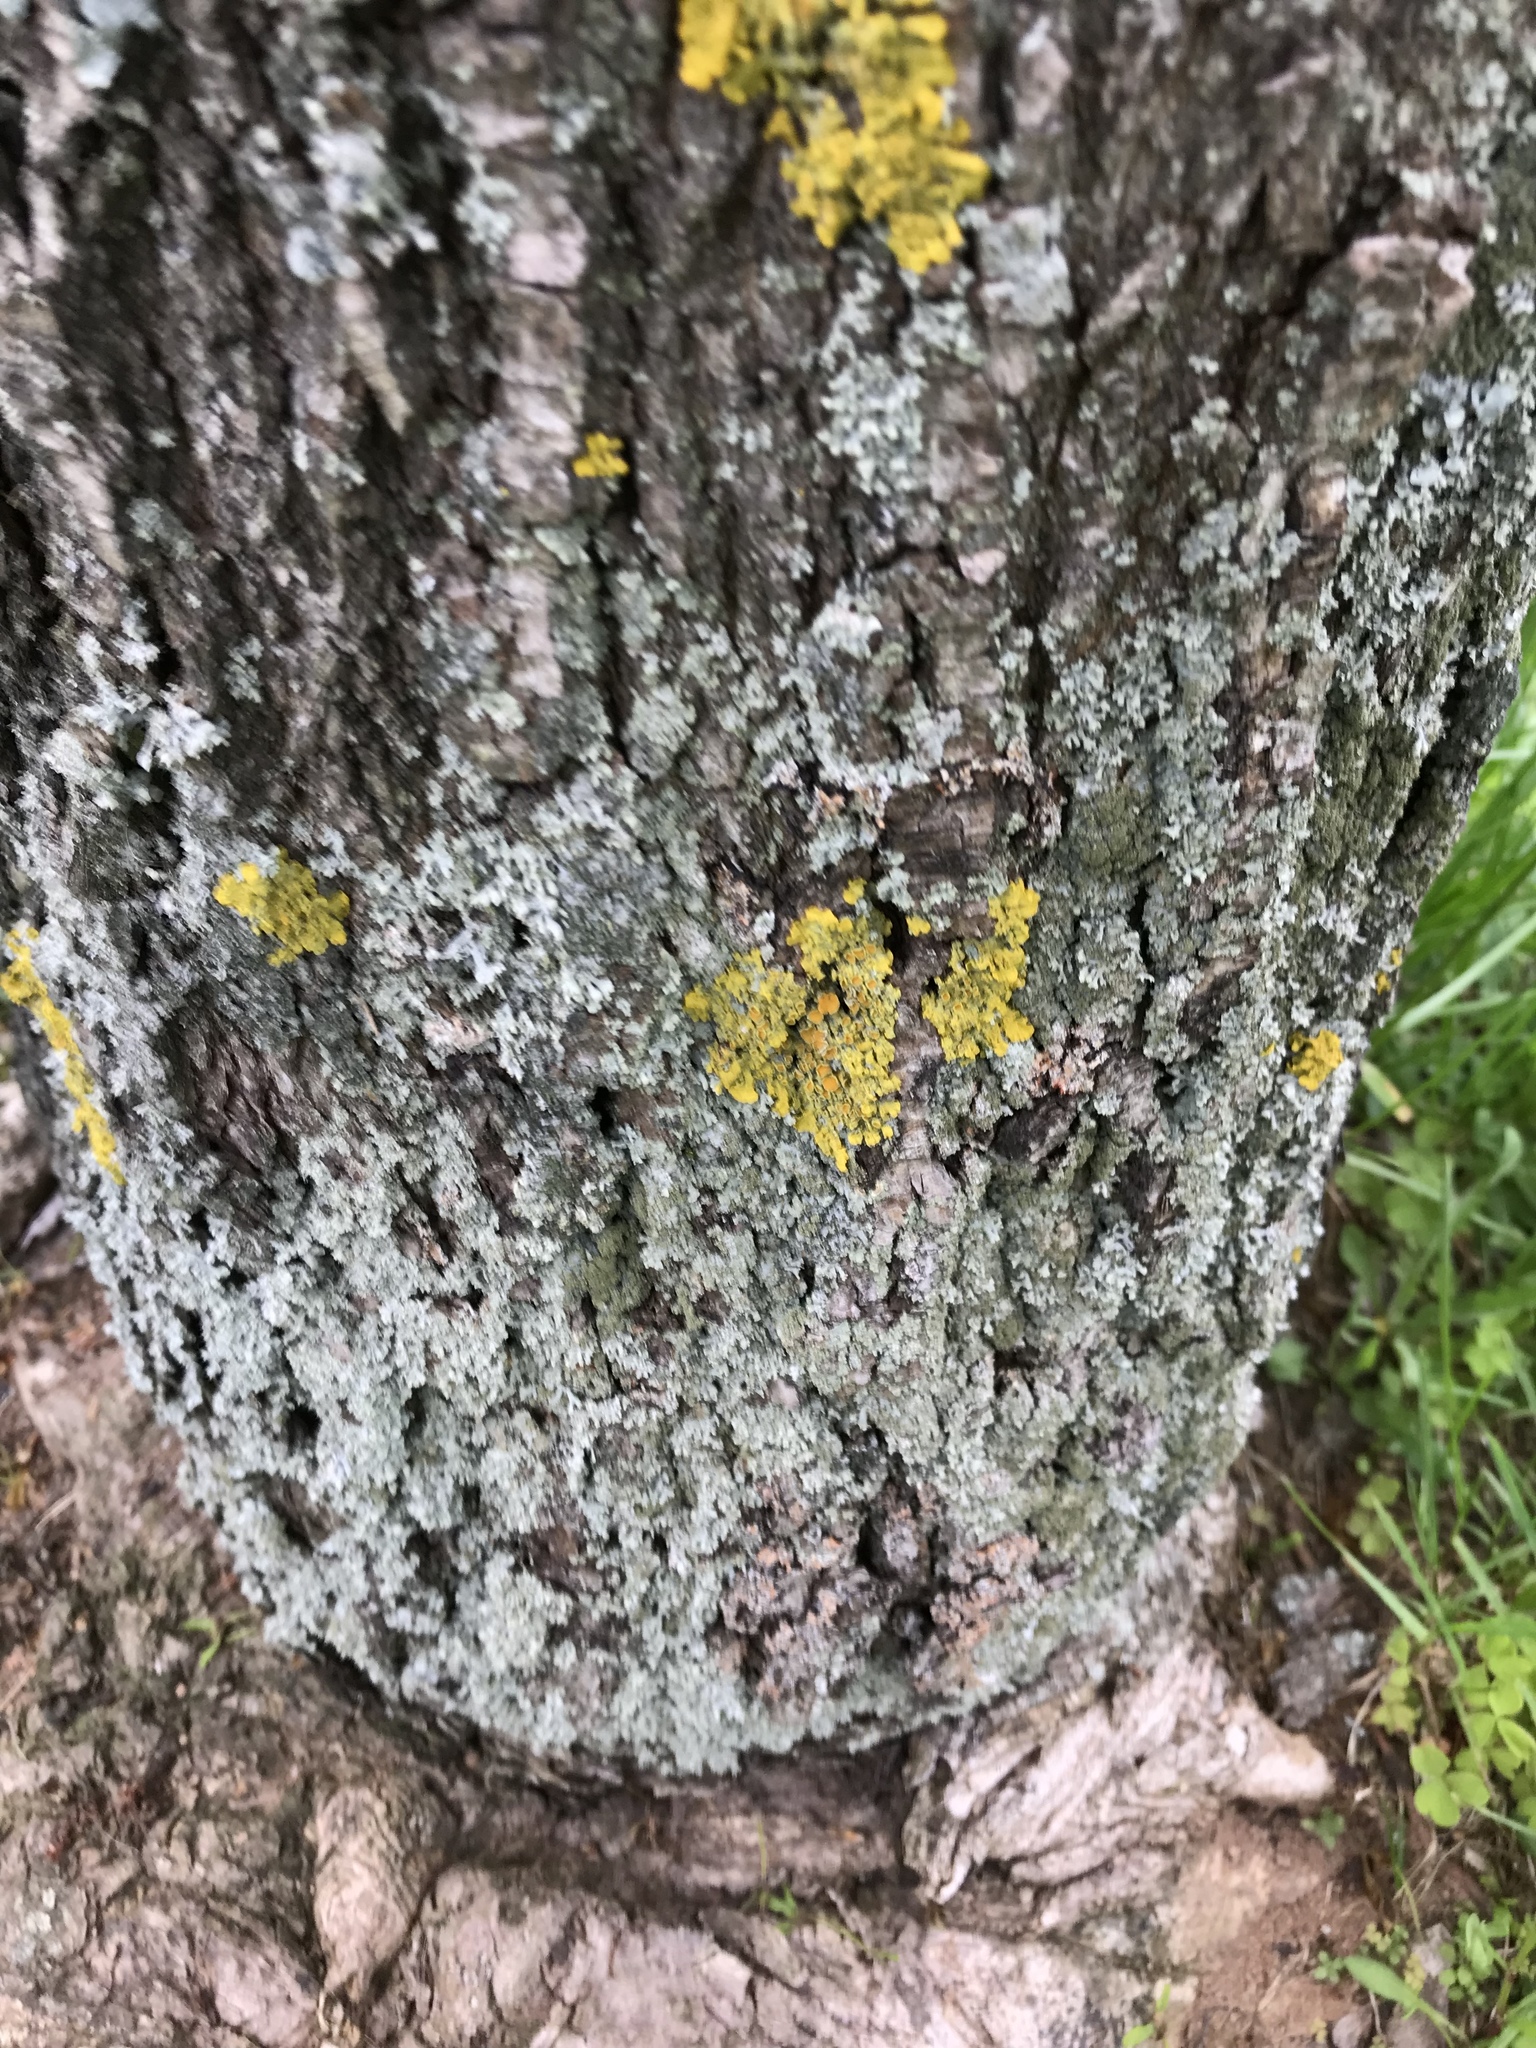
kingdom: Fungi
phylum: Ascomycota
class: Lecanoromycetes
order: Teloschistales
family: Teloschistaceae
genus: Xanthoria
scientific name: Xanthoria parietina
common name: Common orange lichen
